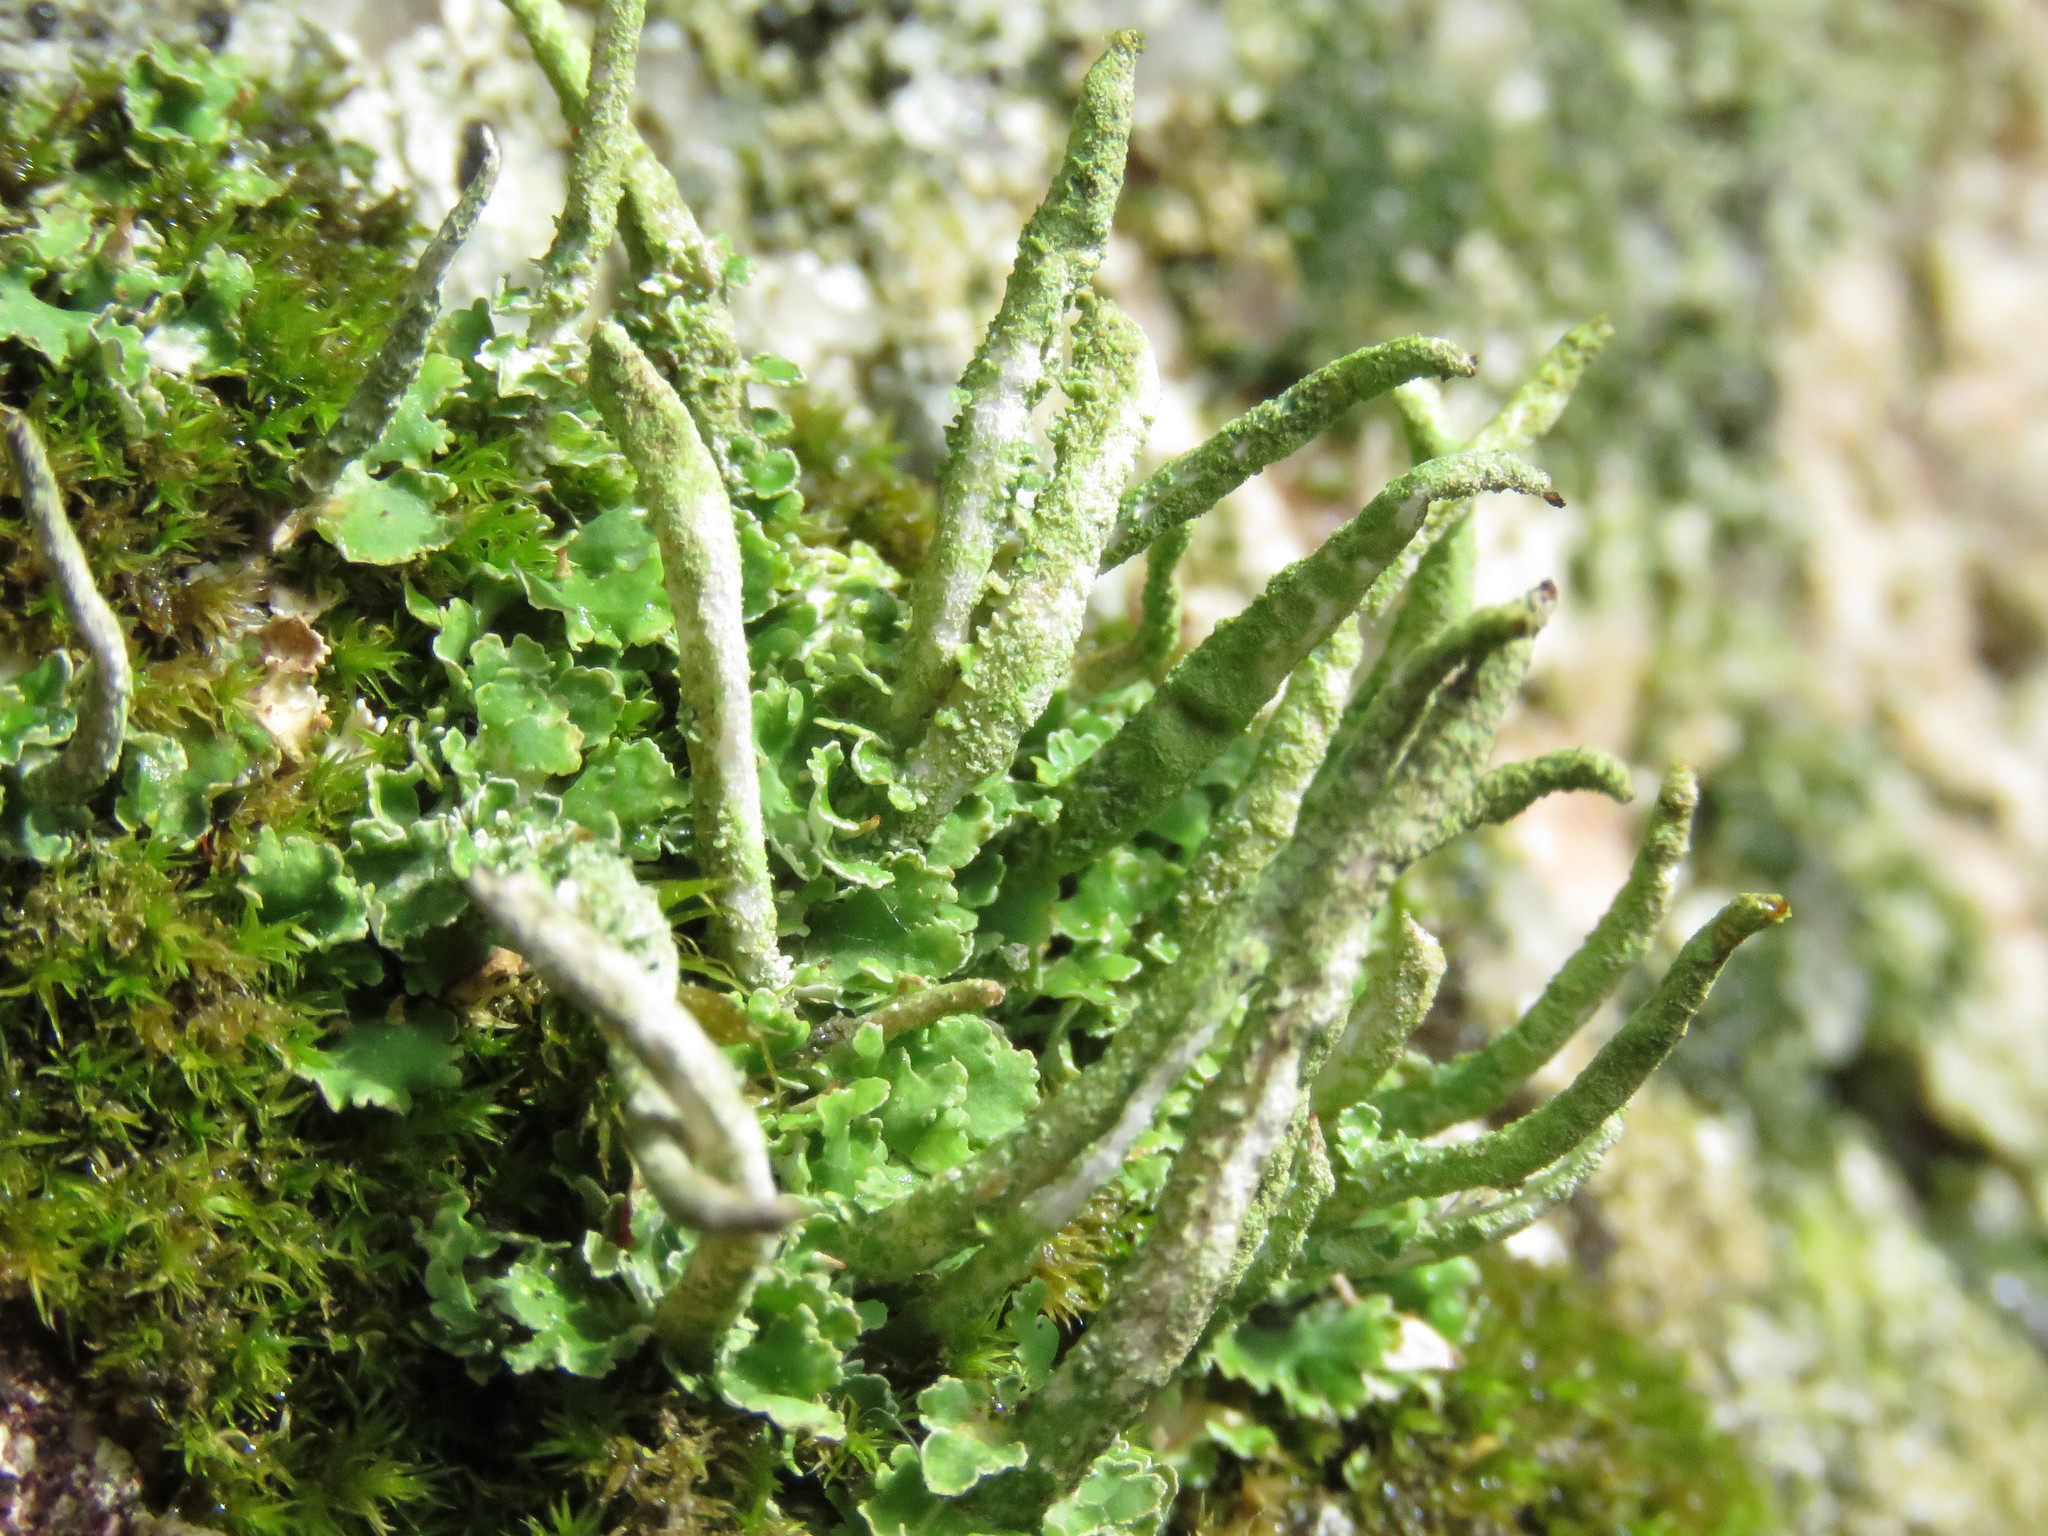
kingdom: Fungi
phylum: Ascomycota
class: Lecanoromycetes
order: Lecanorales
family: Cladoniaceae
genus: Cladonia
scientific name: Cladonia ochrochlora
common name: Smooth-footed powderhorn
